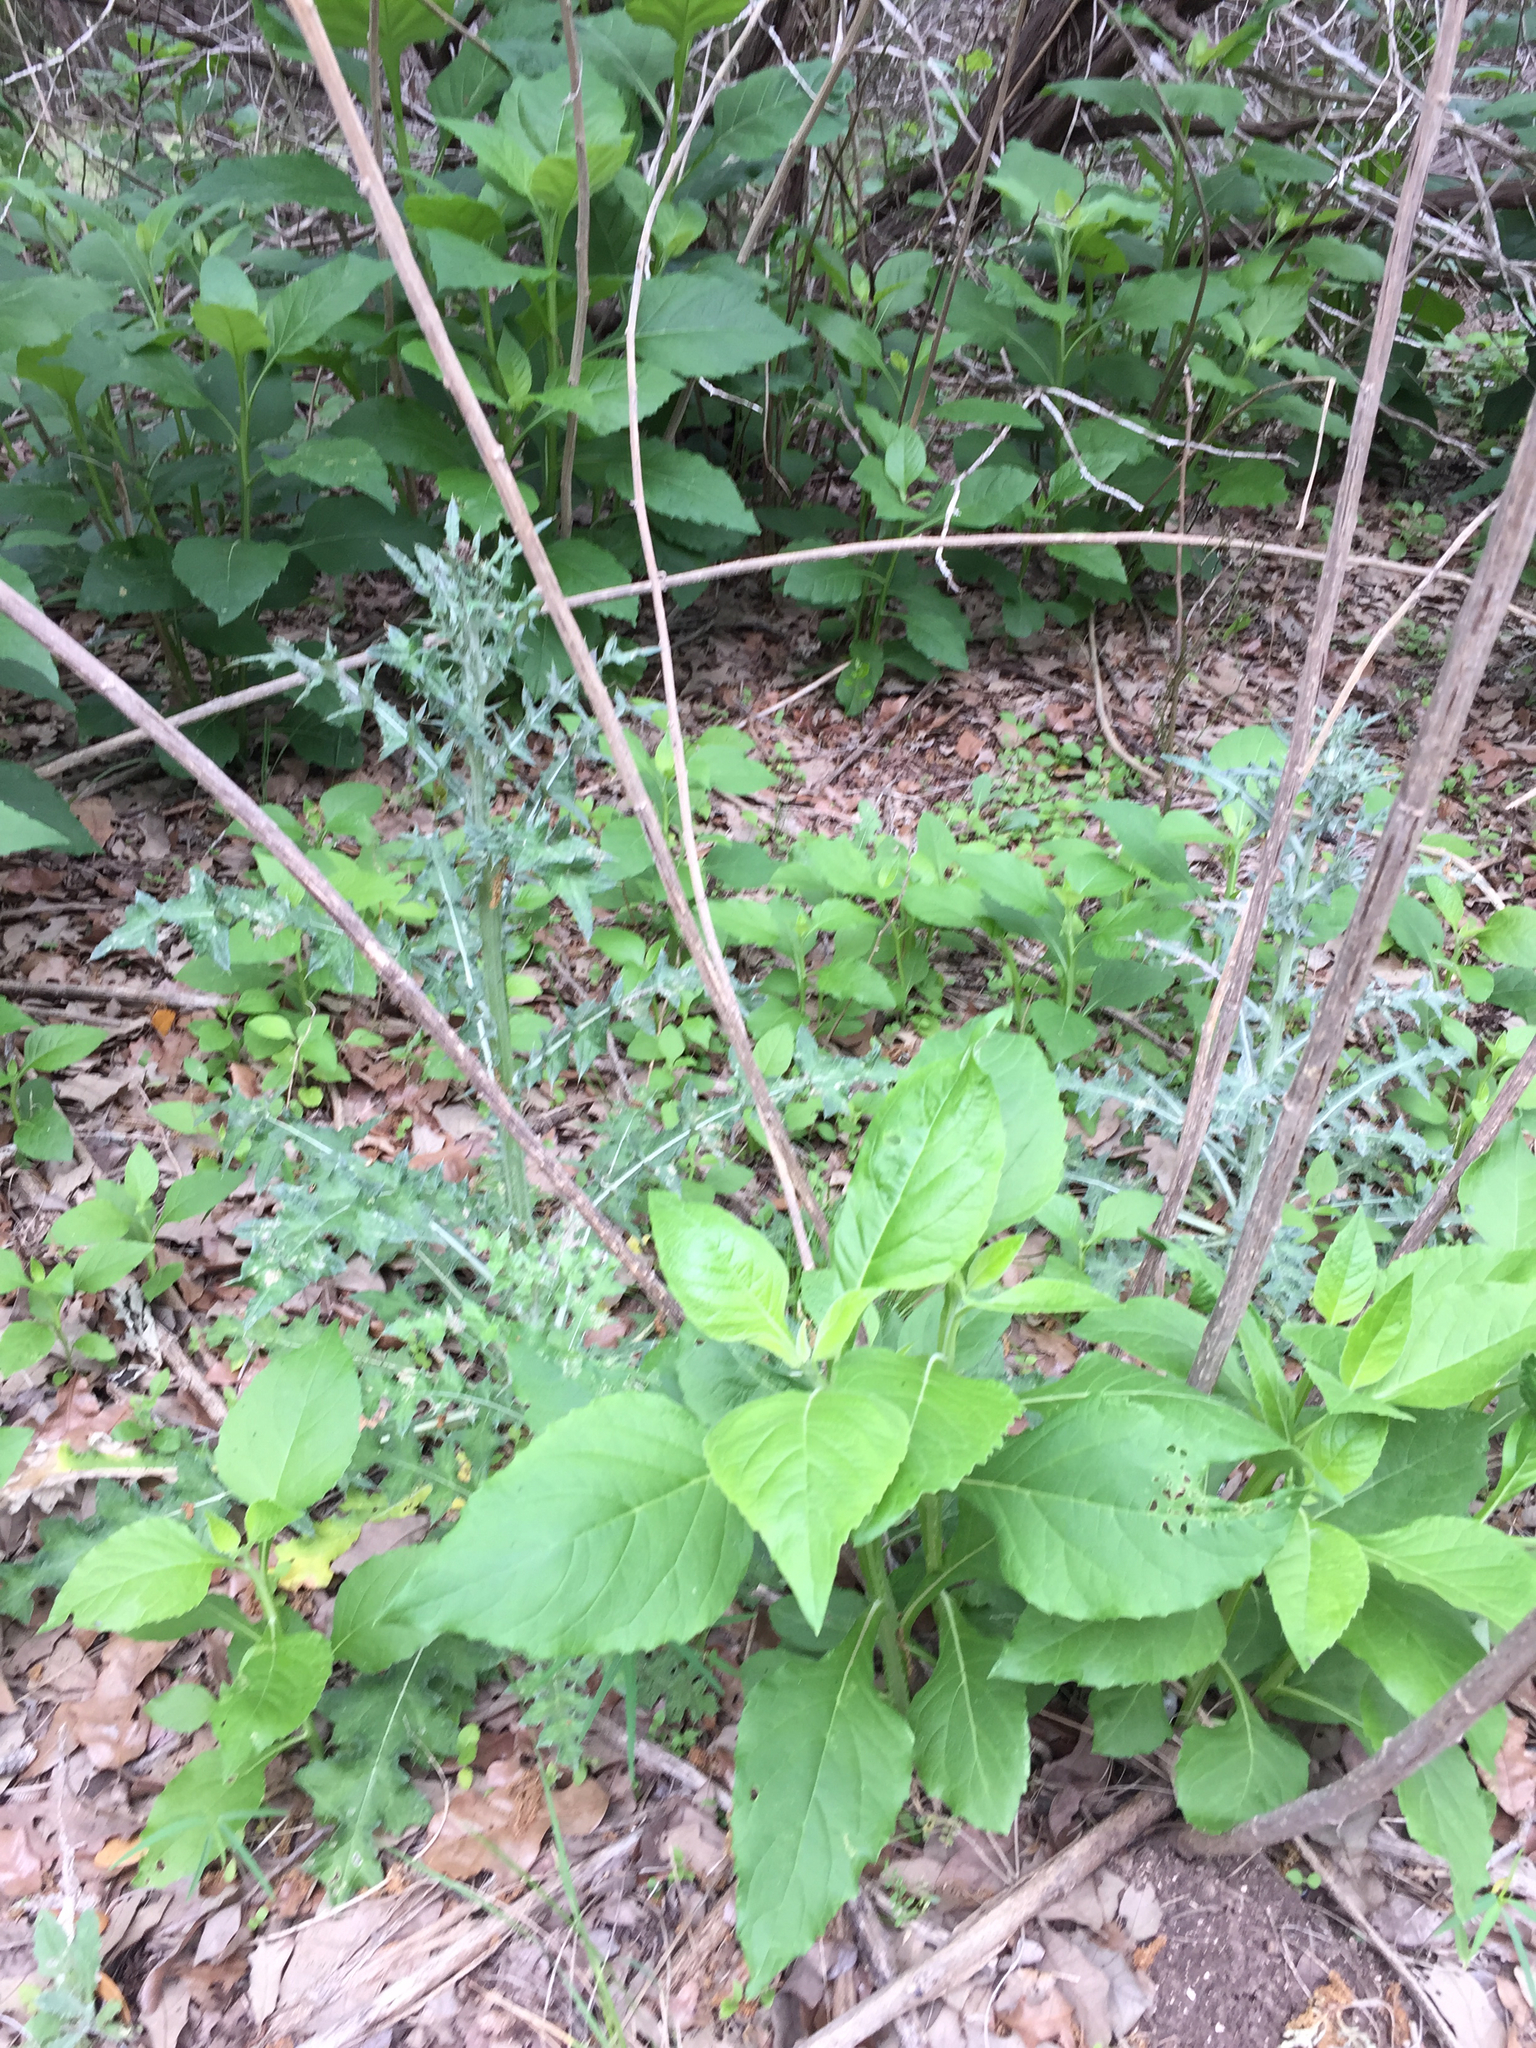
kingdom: Plantae
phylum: Tracheophyta
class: Magnoliopsida
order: Asterales
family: Asteraceae
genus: Verbesina
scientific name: Verbesina virginica
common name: Frostweed
